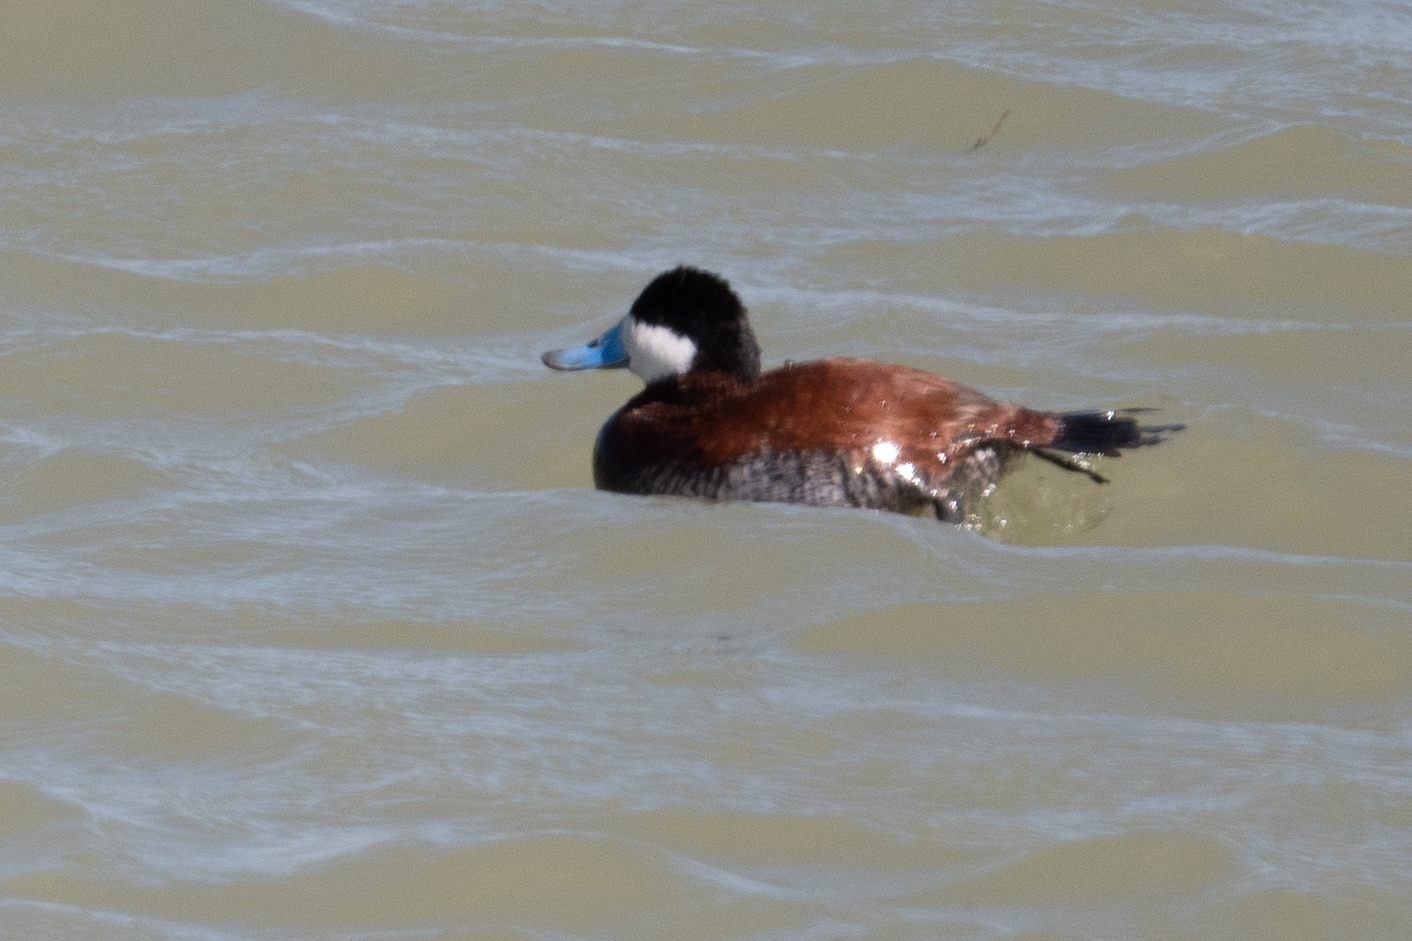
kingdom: Animalia
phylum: Chordata
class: Aves
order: Anseriformes
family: Anatidae
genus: Oxyura
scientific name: Oxyura jamaicensis
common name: Ruddy duck
